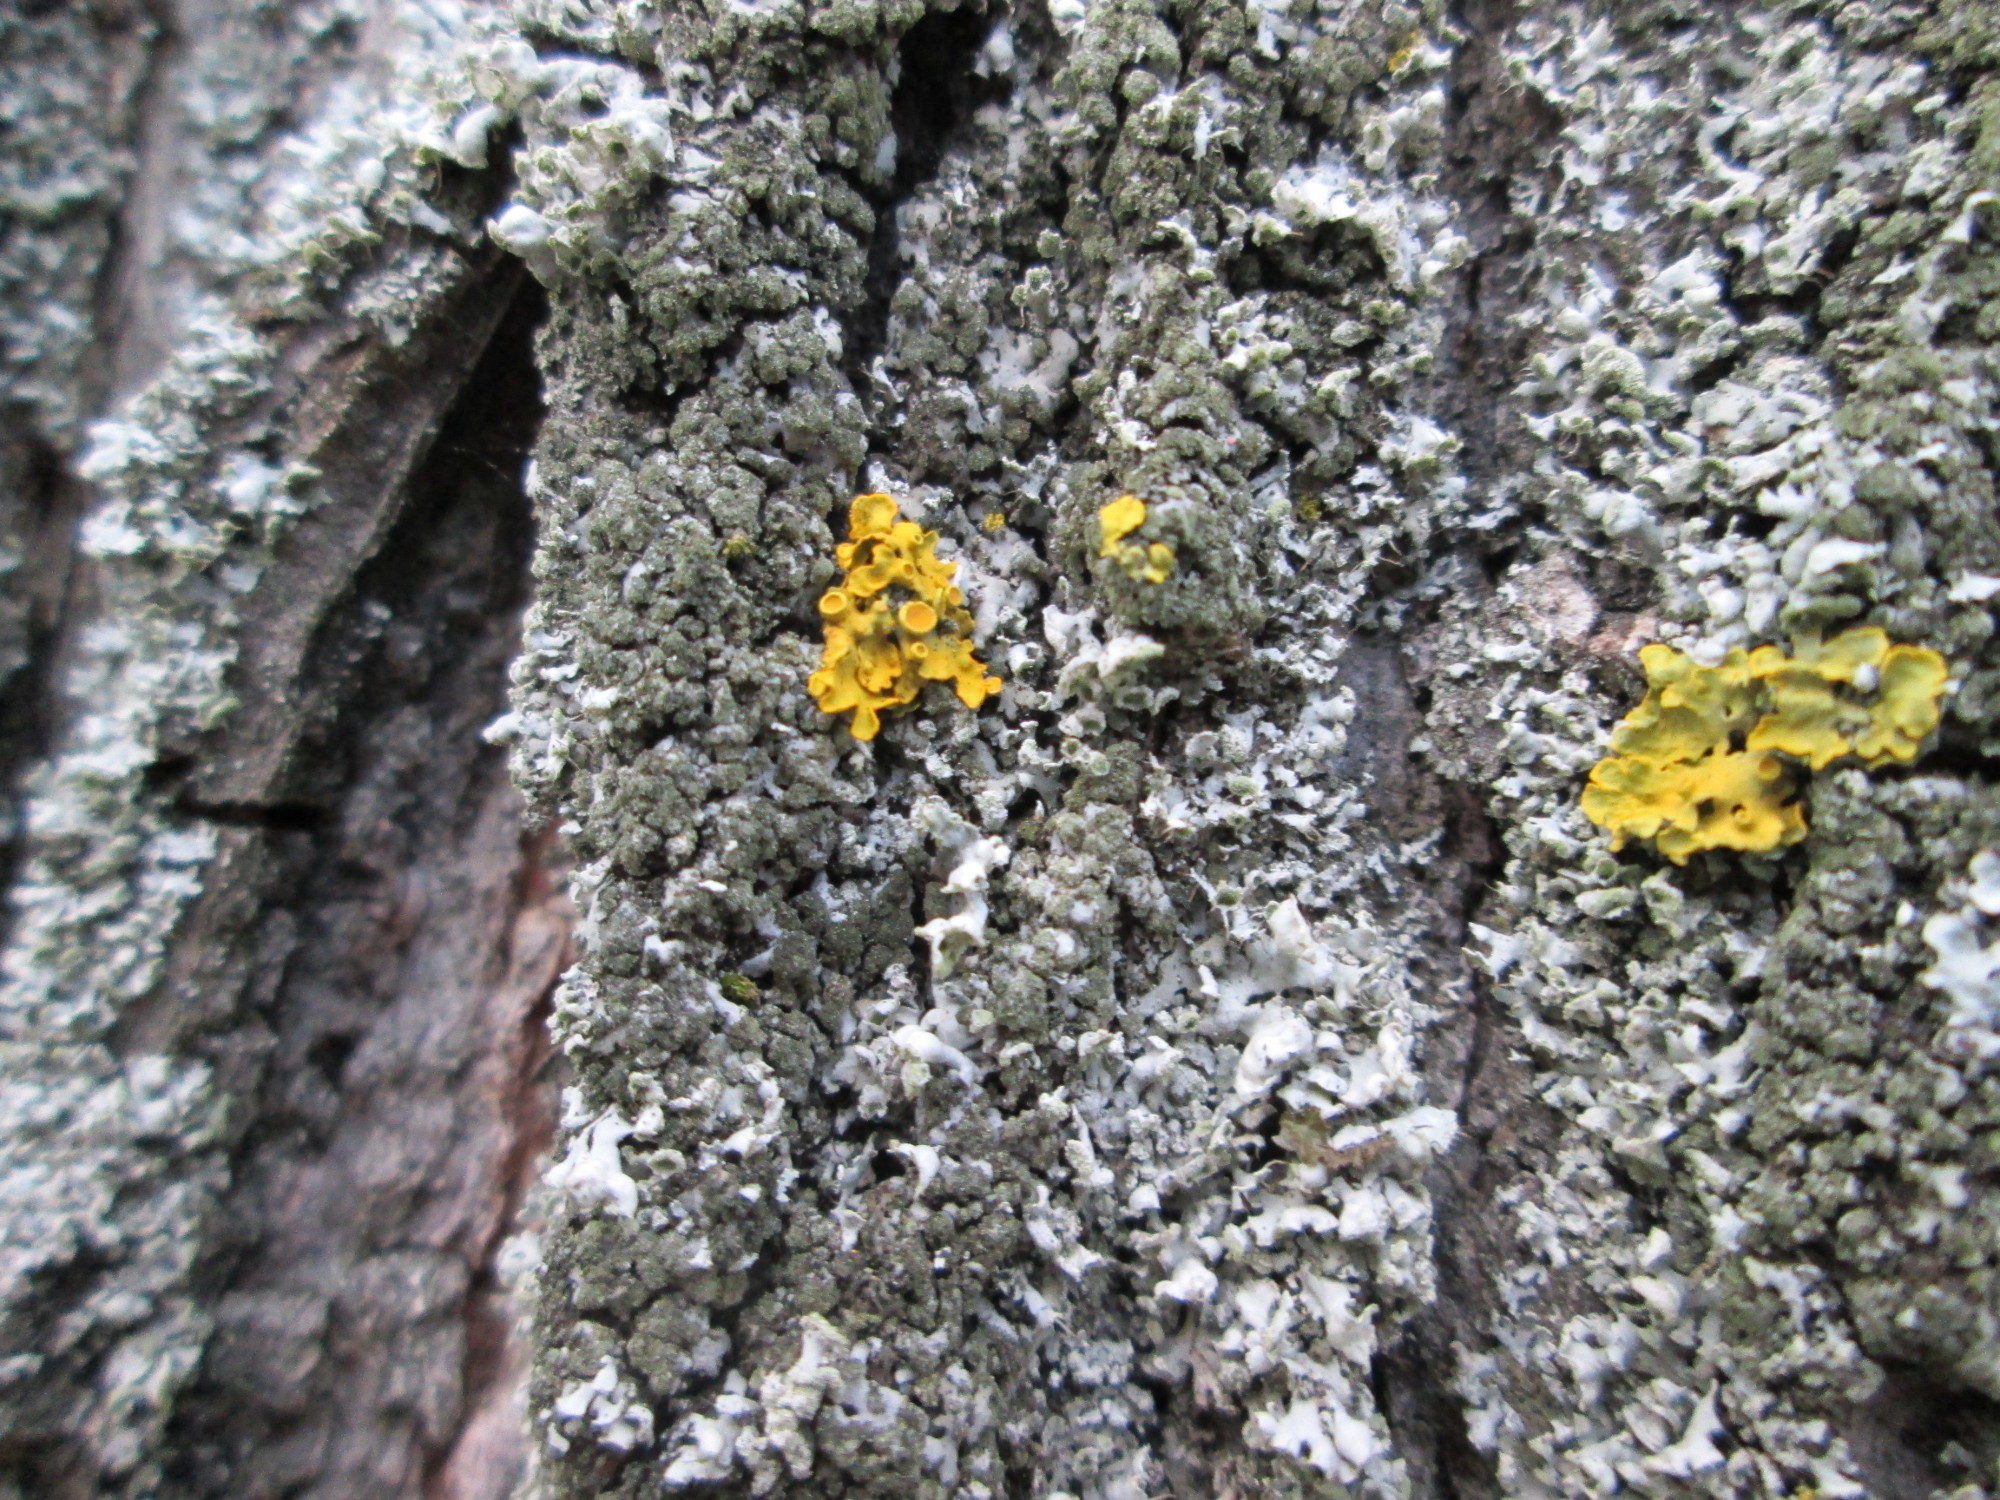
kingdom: Fungi
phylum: Ascomycota
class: Lecanoromycetes
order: Teloschistales
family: Teloschistaceae
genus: Xanthoria
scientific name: Xanthoria parietina
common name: Common orange lichen
